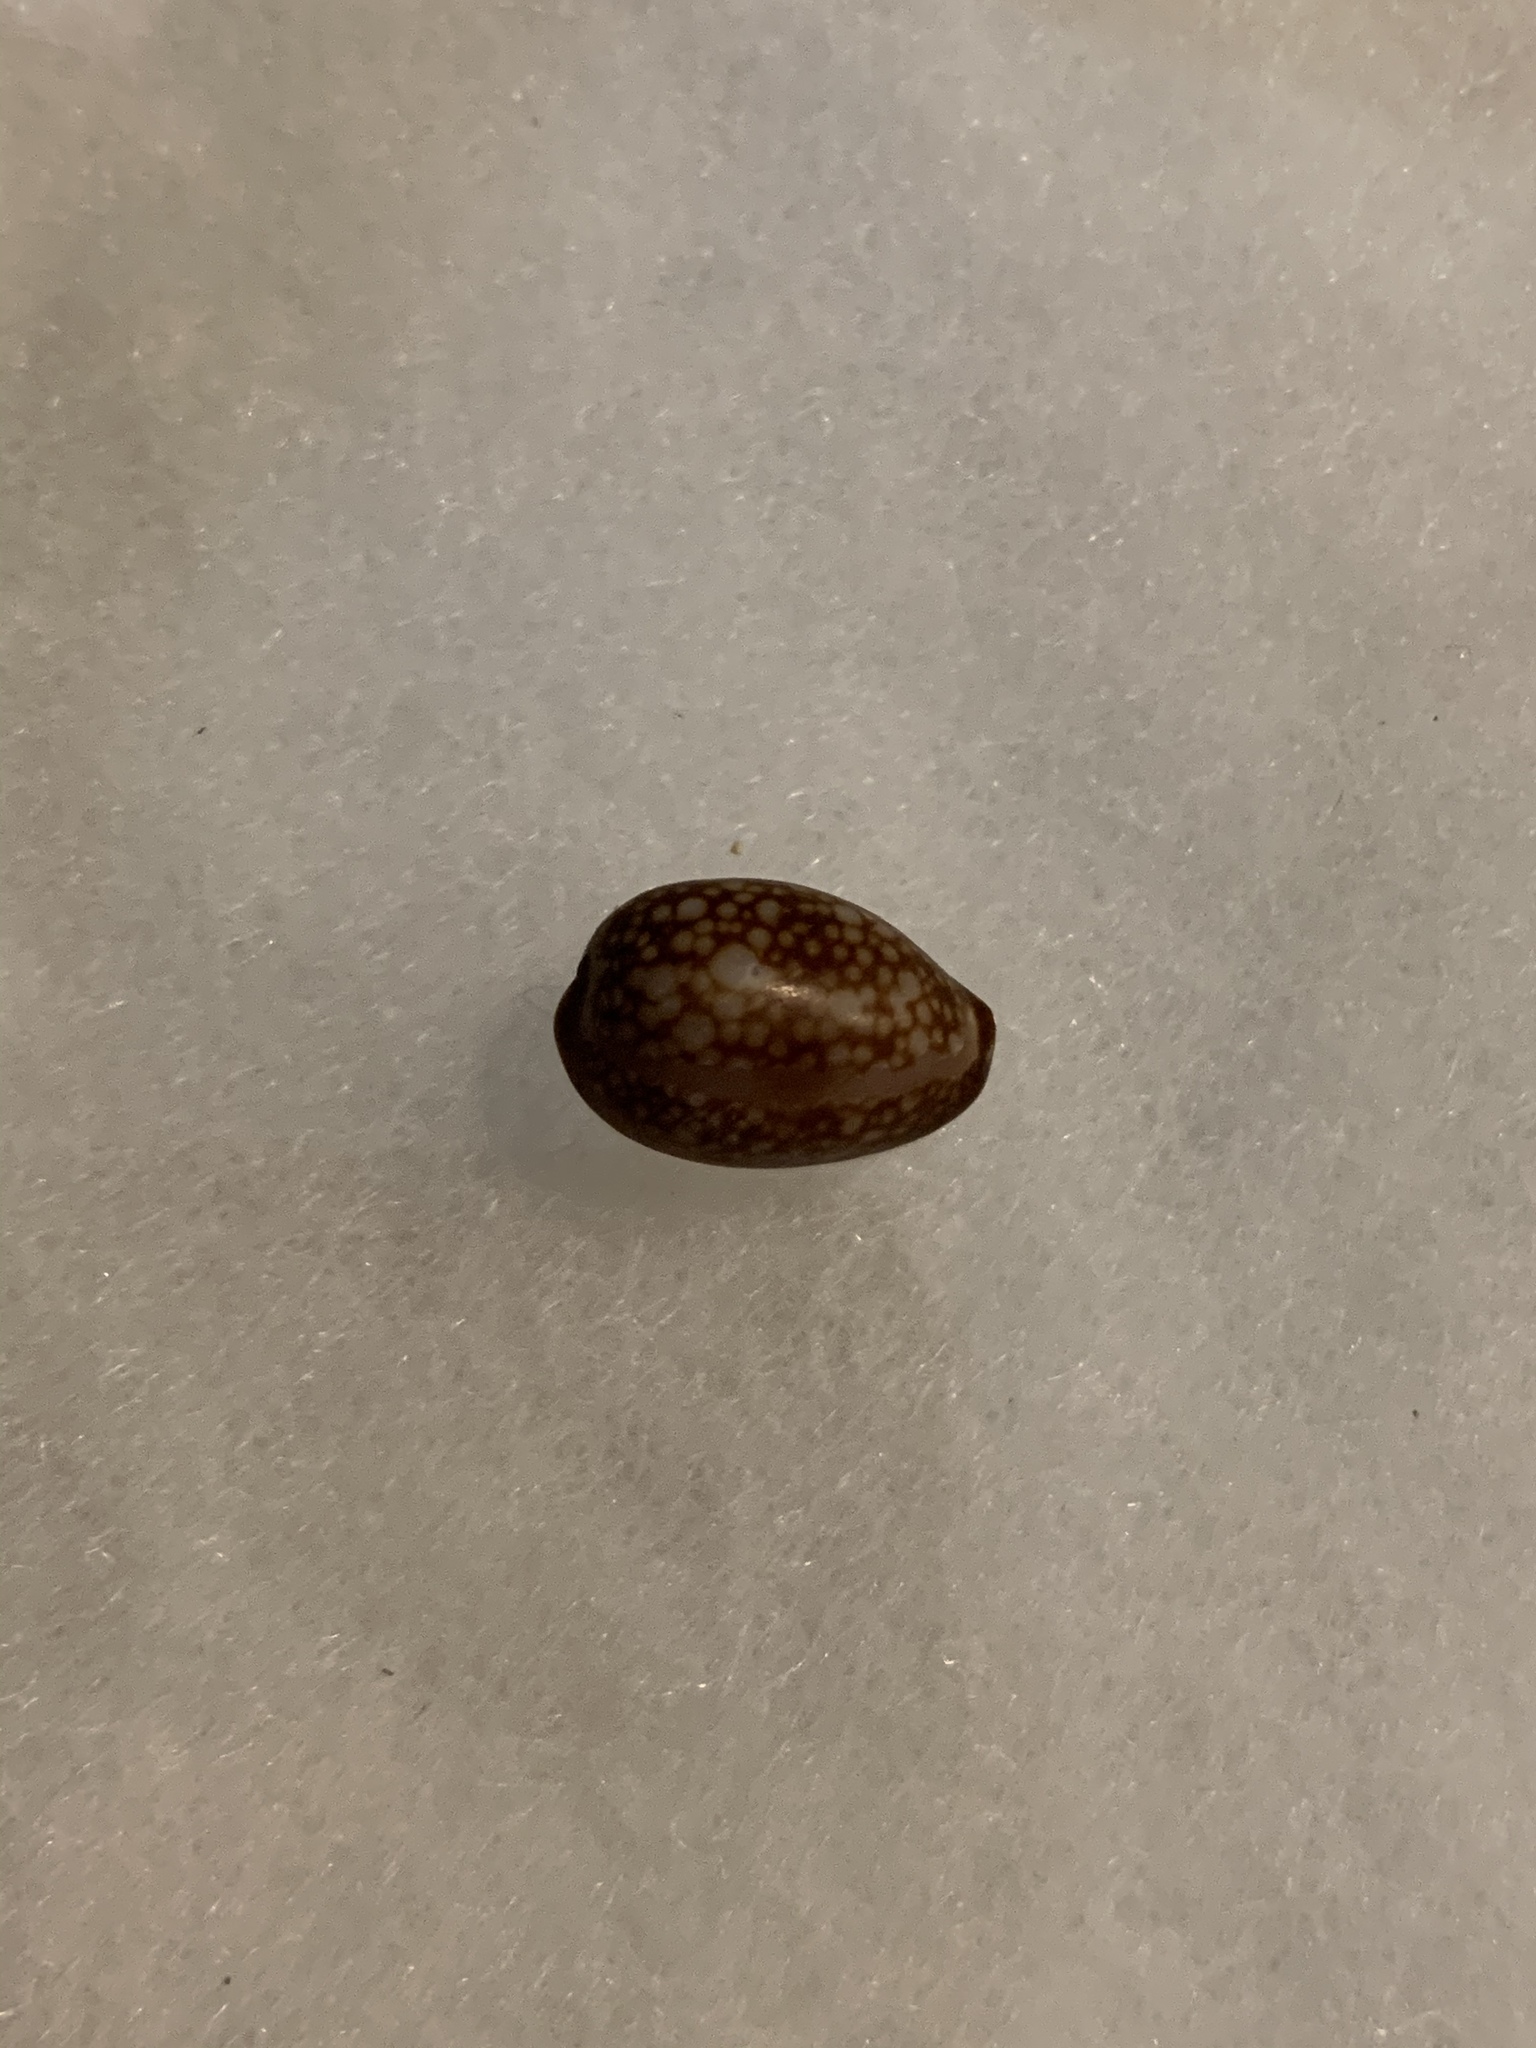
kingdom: Animalia
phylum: Mollusca
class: Gastropoda
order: Littorinimorpha
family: Cypraeidae
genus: Monetaria
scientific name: Monetaria caputophidii
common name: Snake's head cowry
